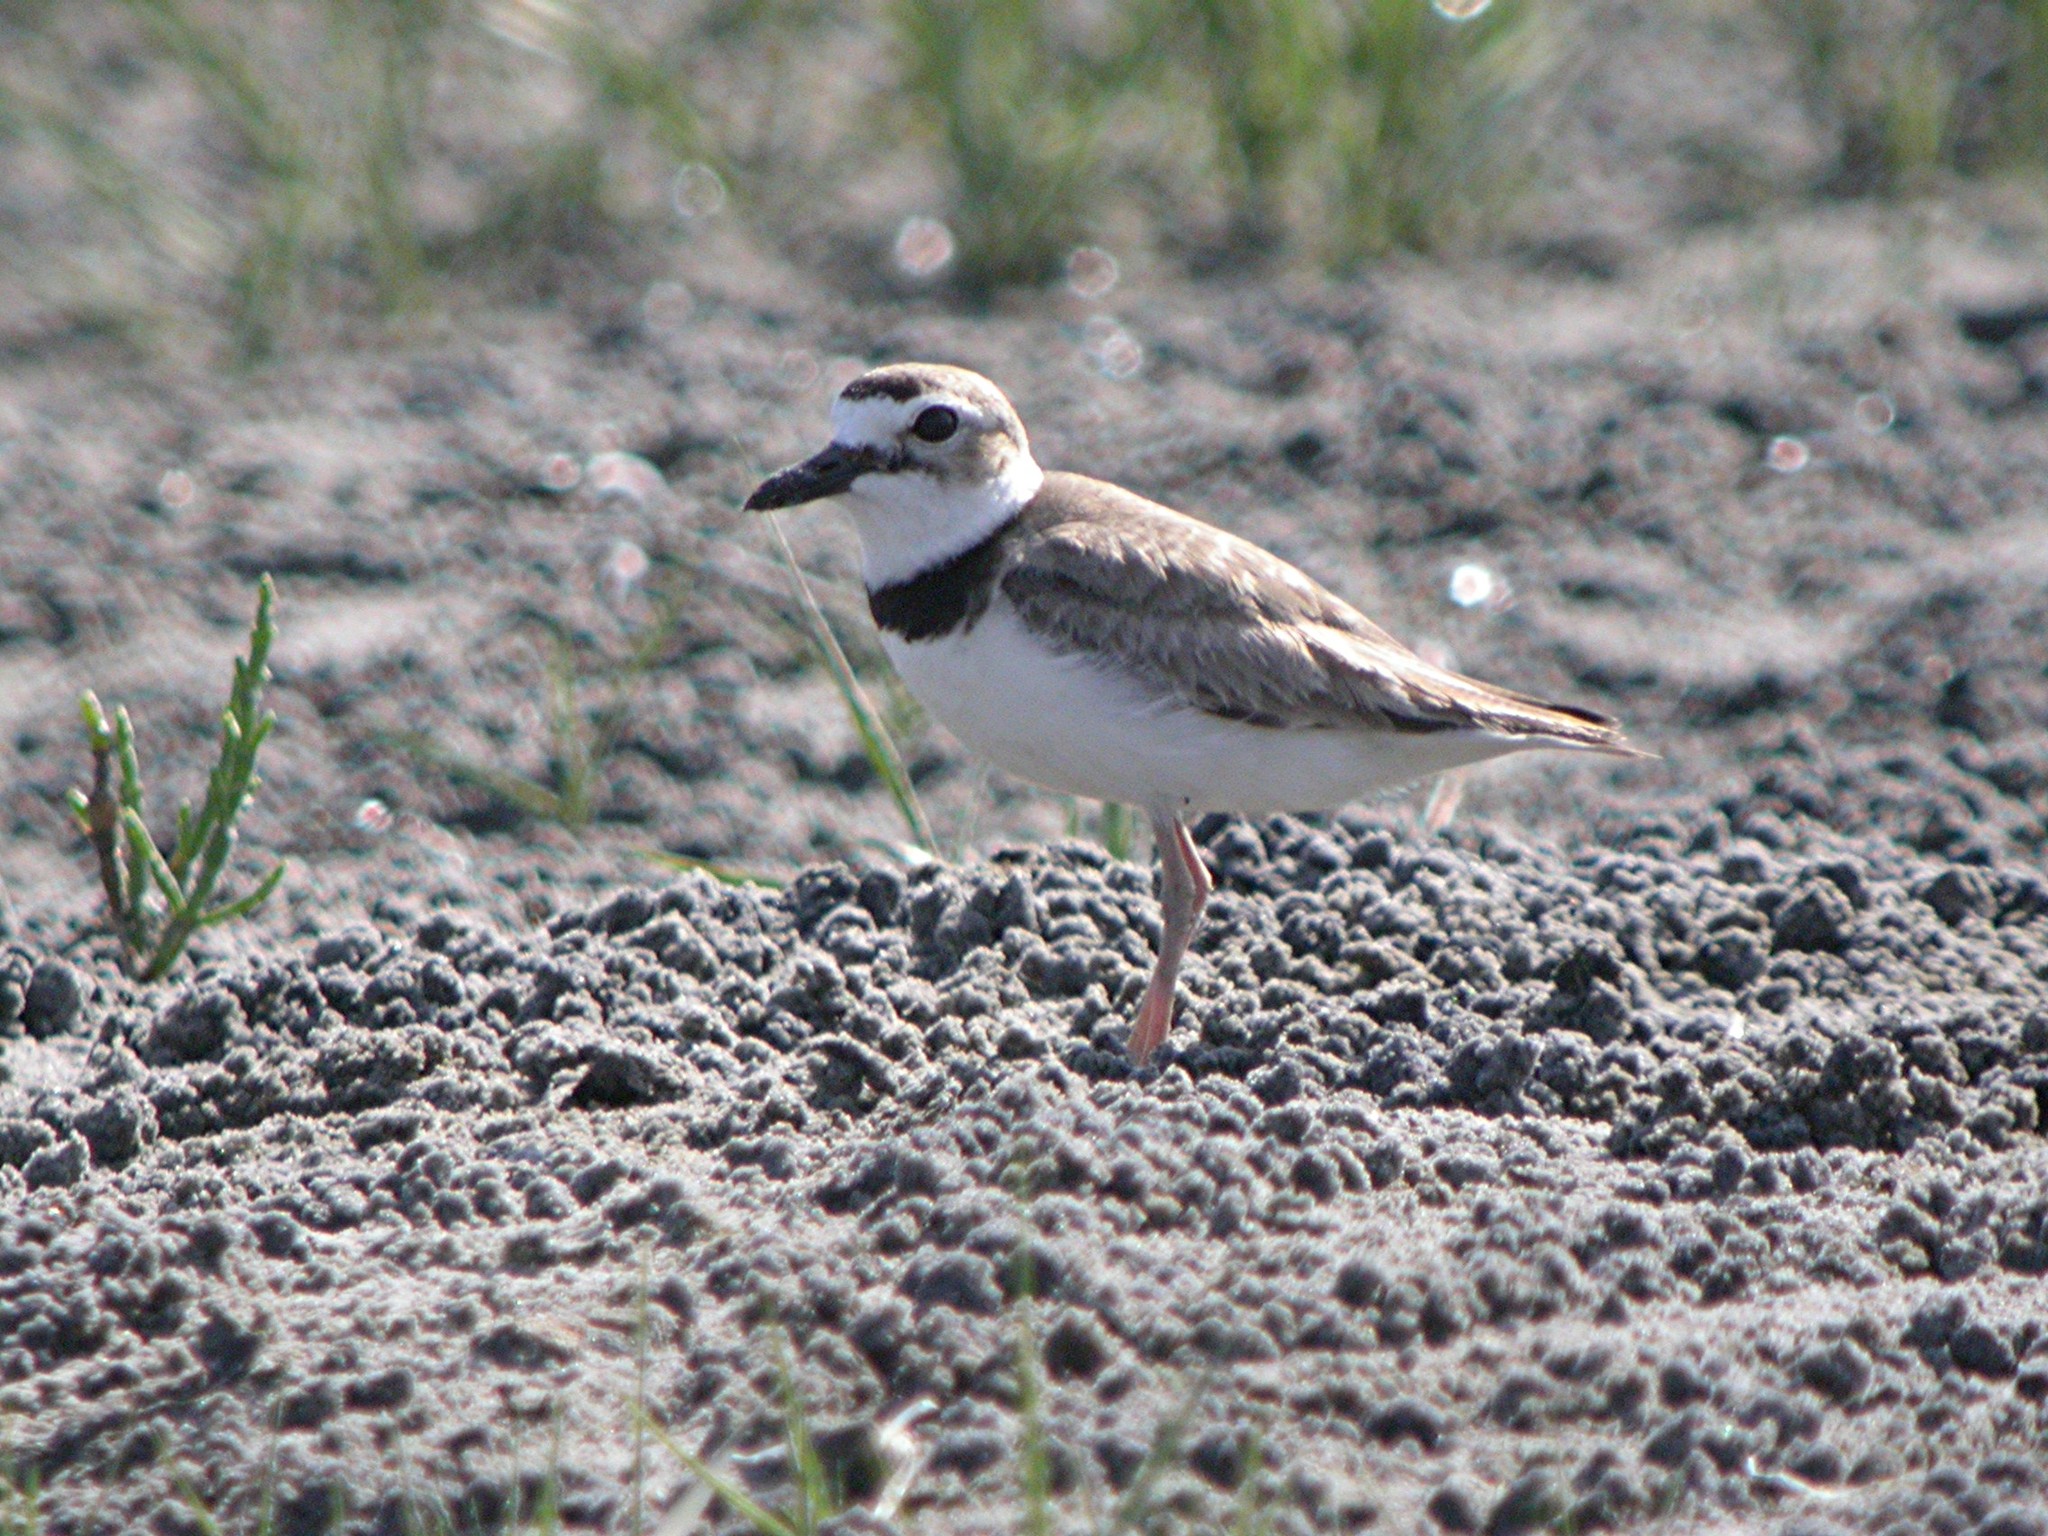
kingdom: Animalia
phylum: Chordata
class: Aves
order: Charadriiformes
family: Charadriidae
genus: Anarhynchus
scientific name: Anarhynchus
